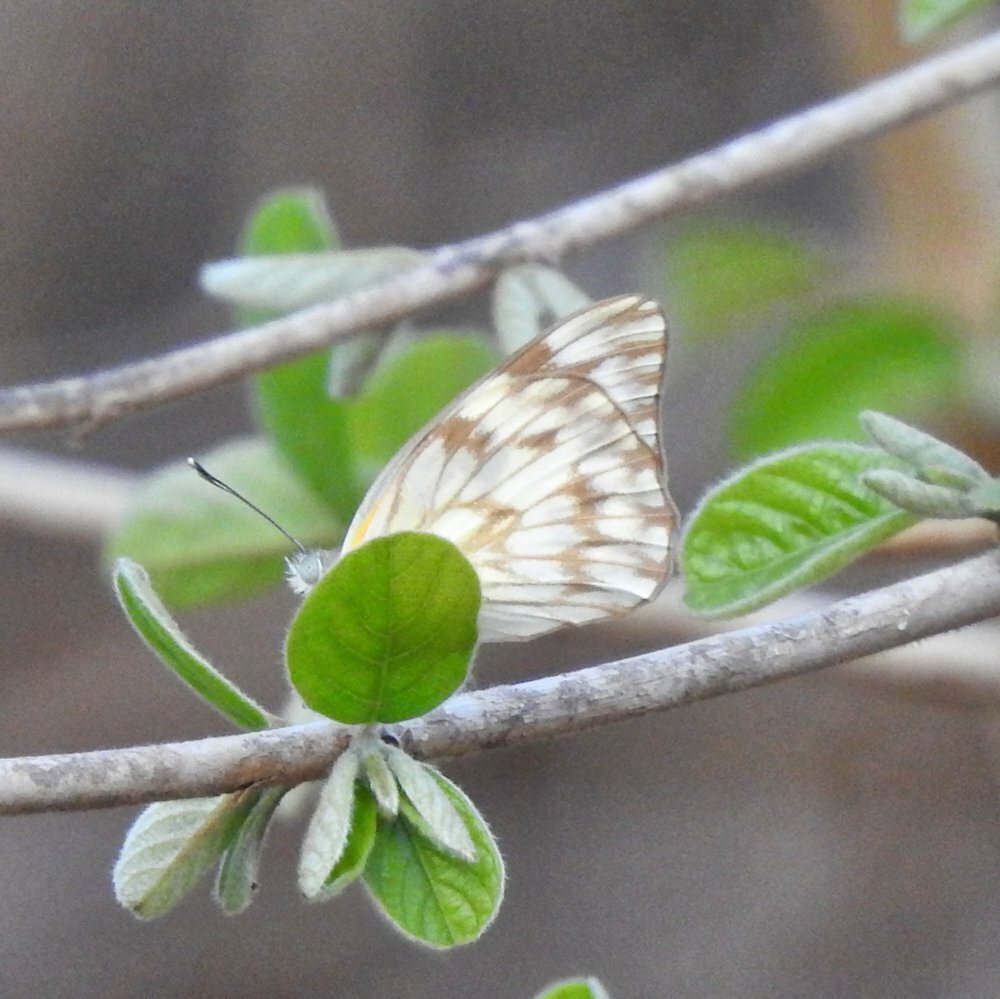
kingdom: Animalia
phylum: Arthropoda
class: Insecta
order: Lepidoptera
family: Pieridae
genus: Belenois
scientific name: Belenois gidica
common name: Pointed caper white
